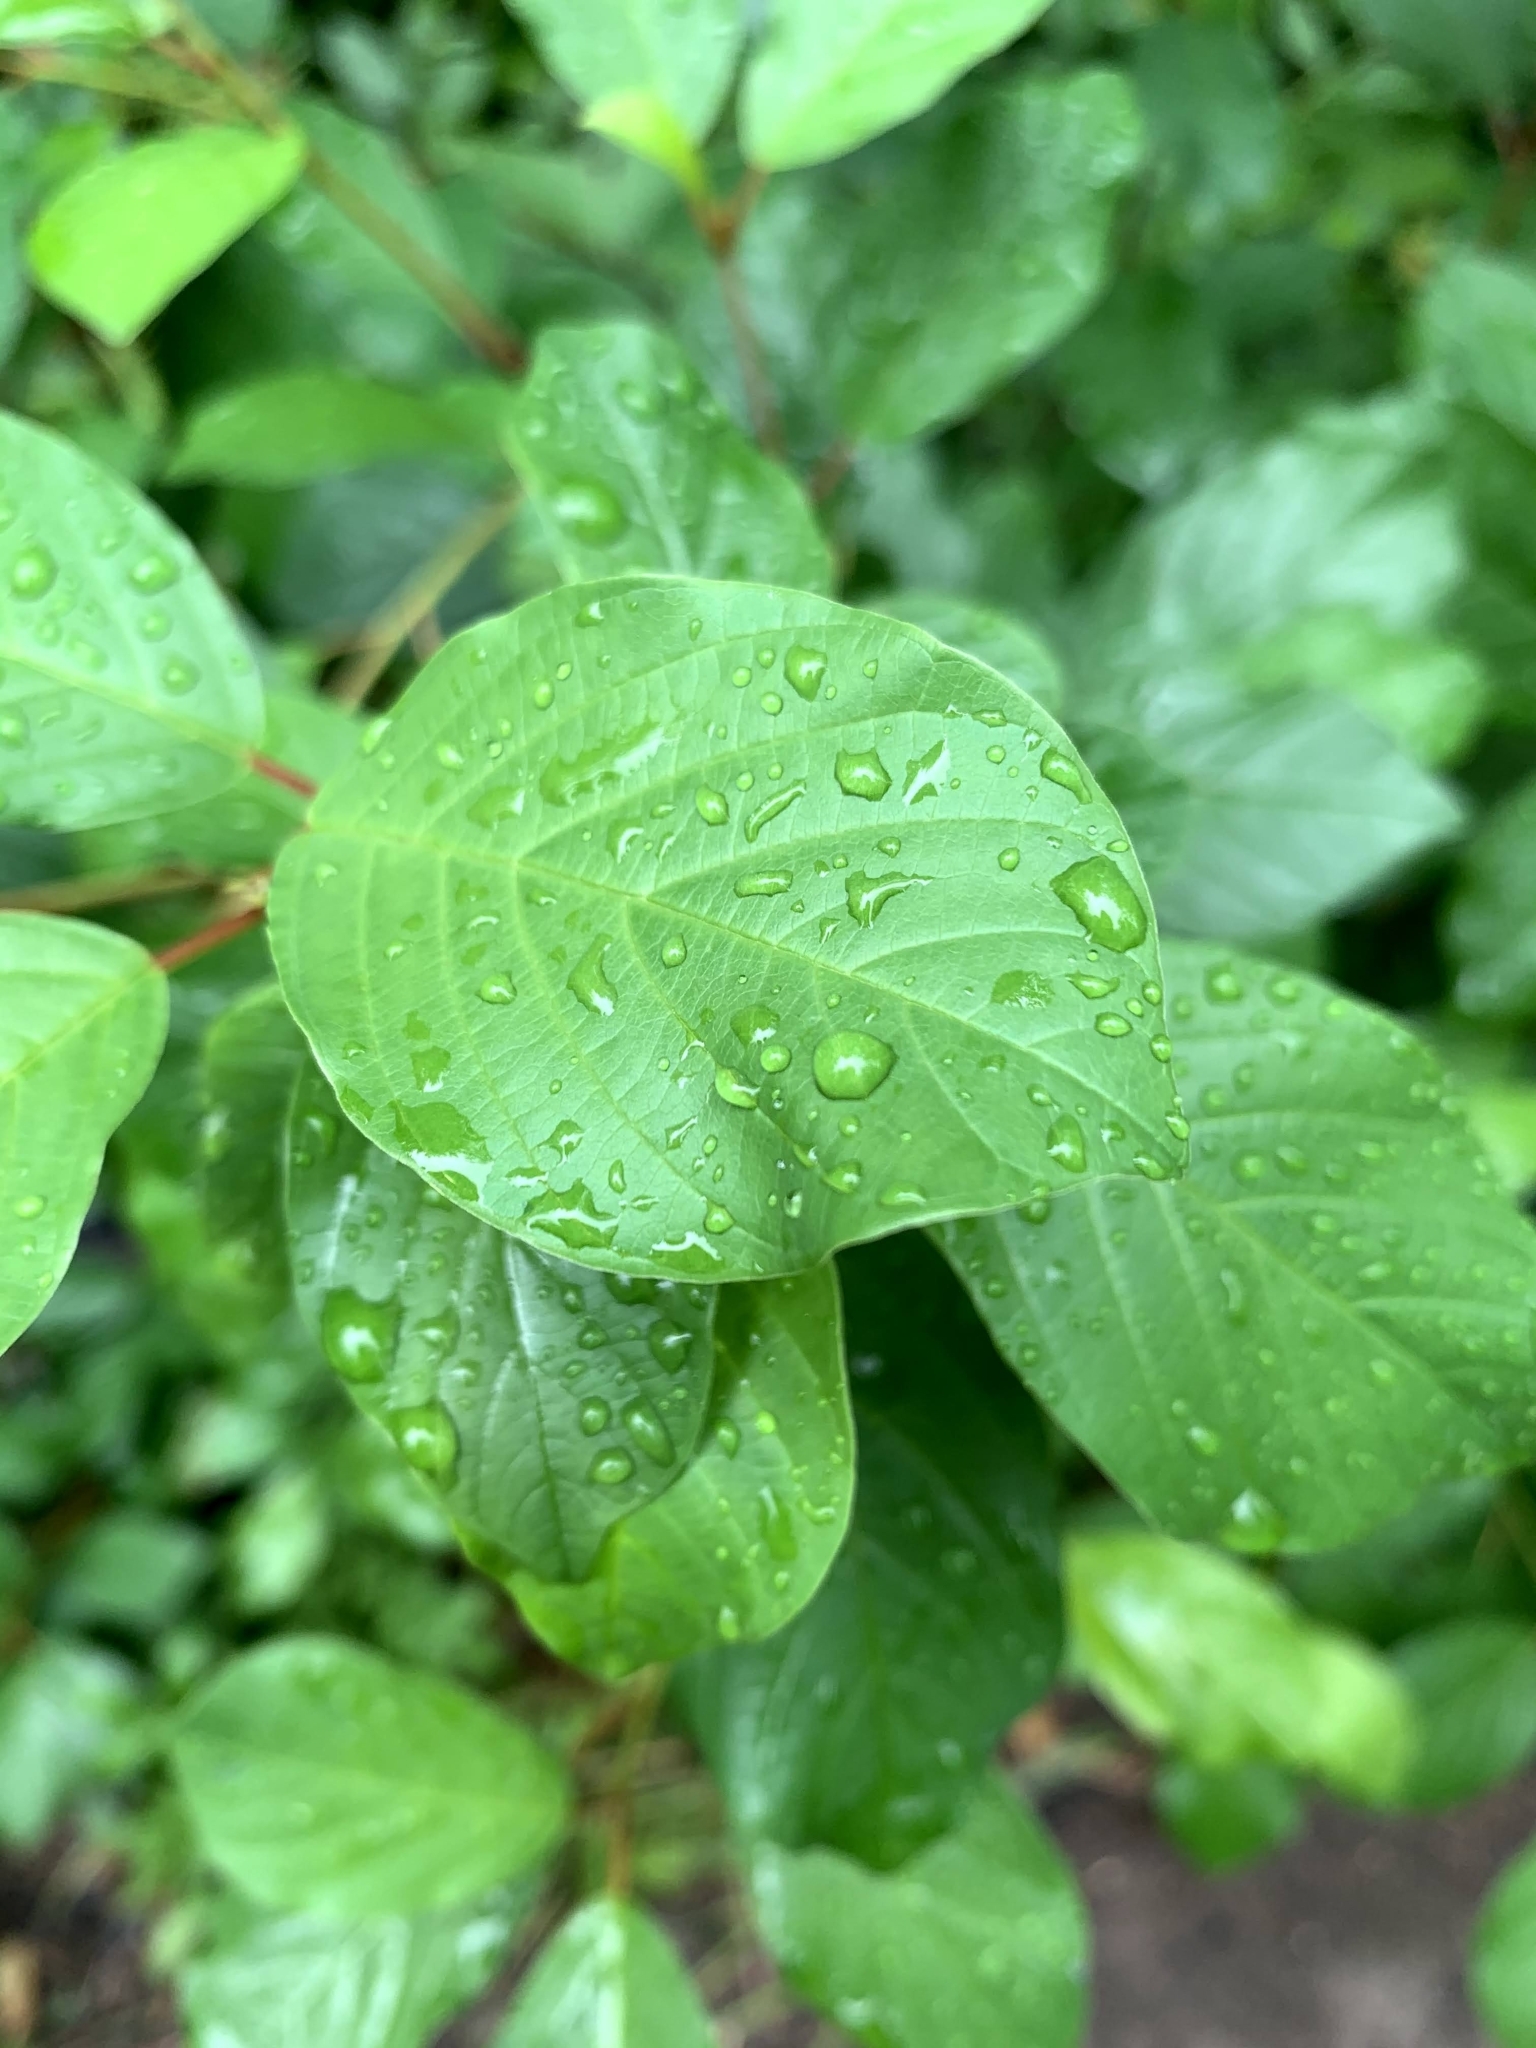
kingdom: Plantae
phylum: Tracheophyta
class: Magnoliopsida
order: Rosales
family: Rhamnaceae
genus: Frangula
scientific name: Frangula alnus
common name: Alder buckthorn
